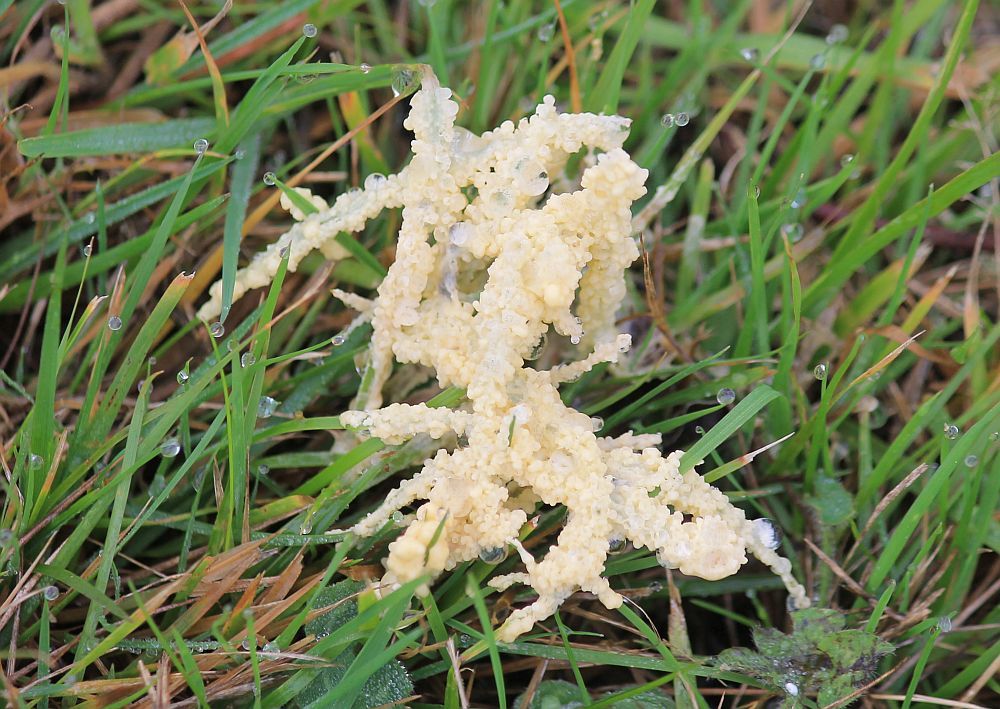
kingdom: Protozoa
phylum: Mycetozoa
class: Myxomycetes
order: Physarales
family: Physaraceae
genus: Didymium
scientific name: Didymium
